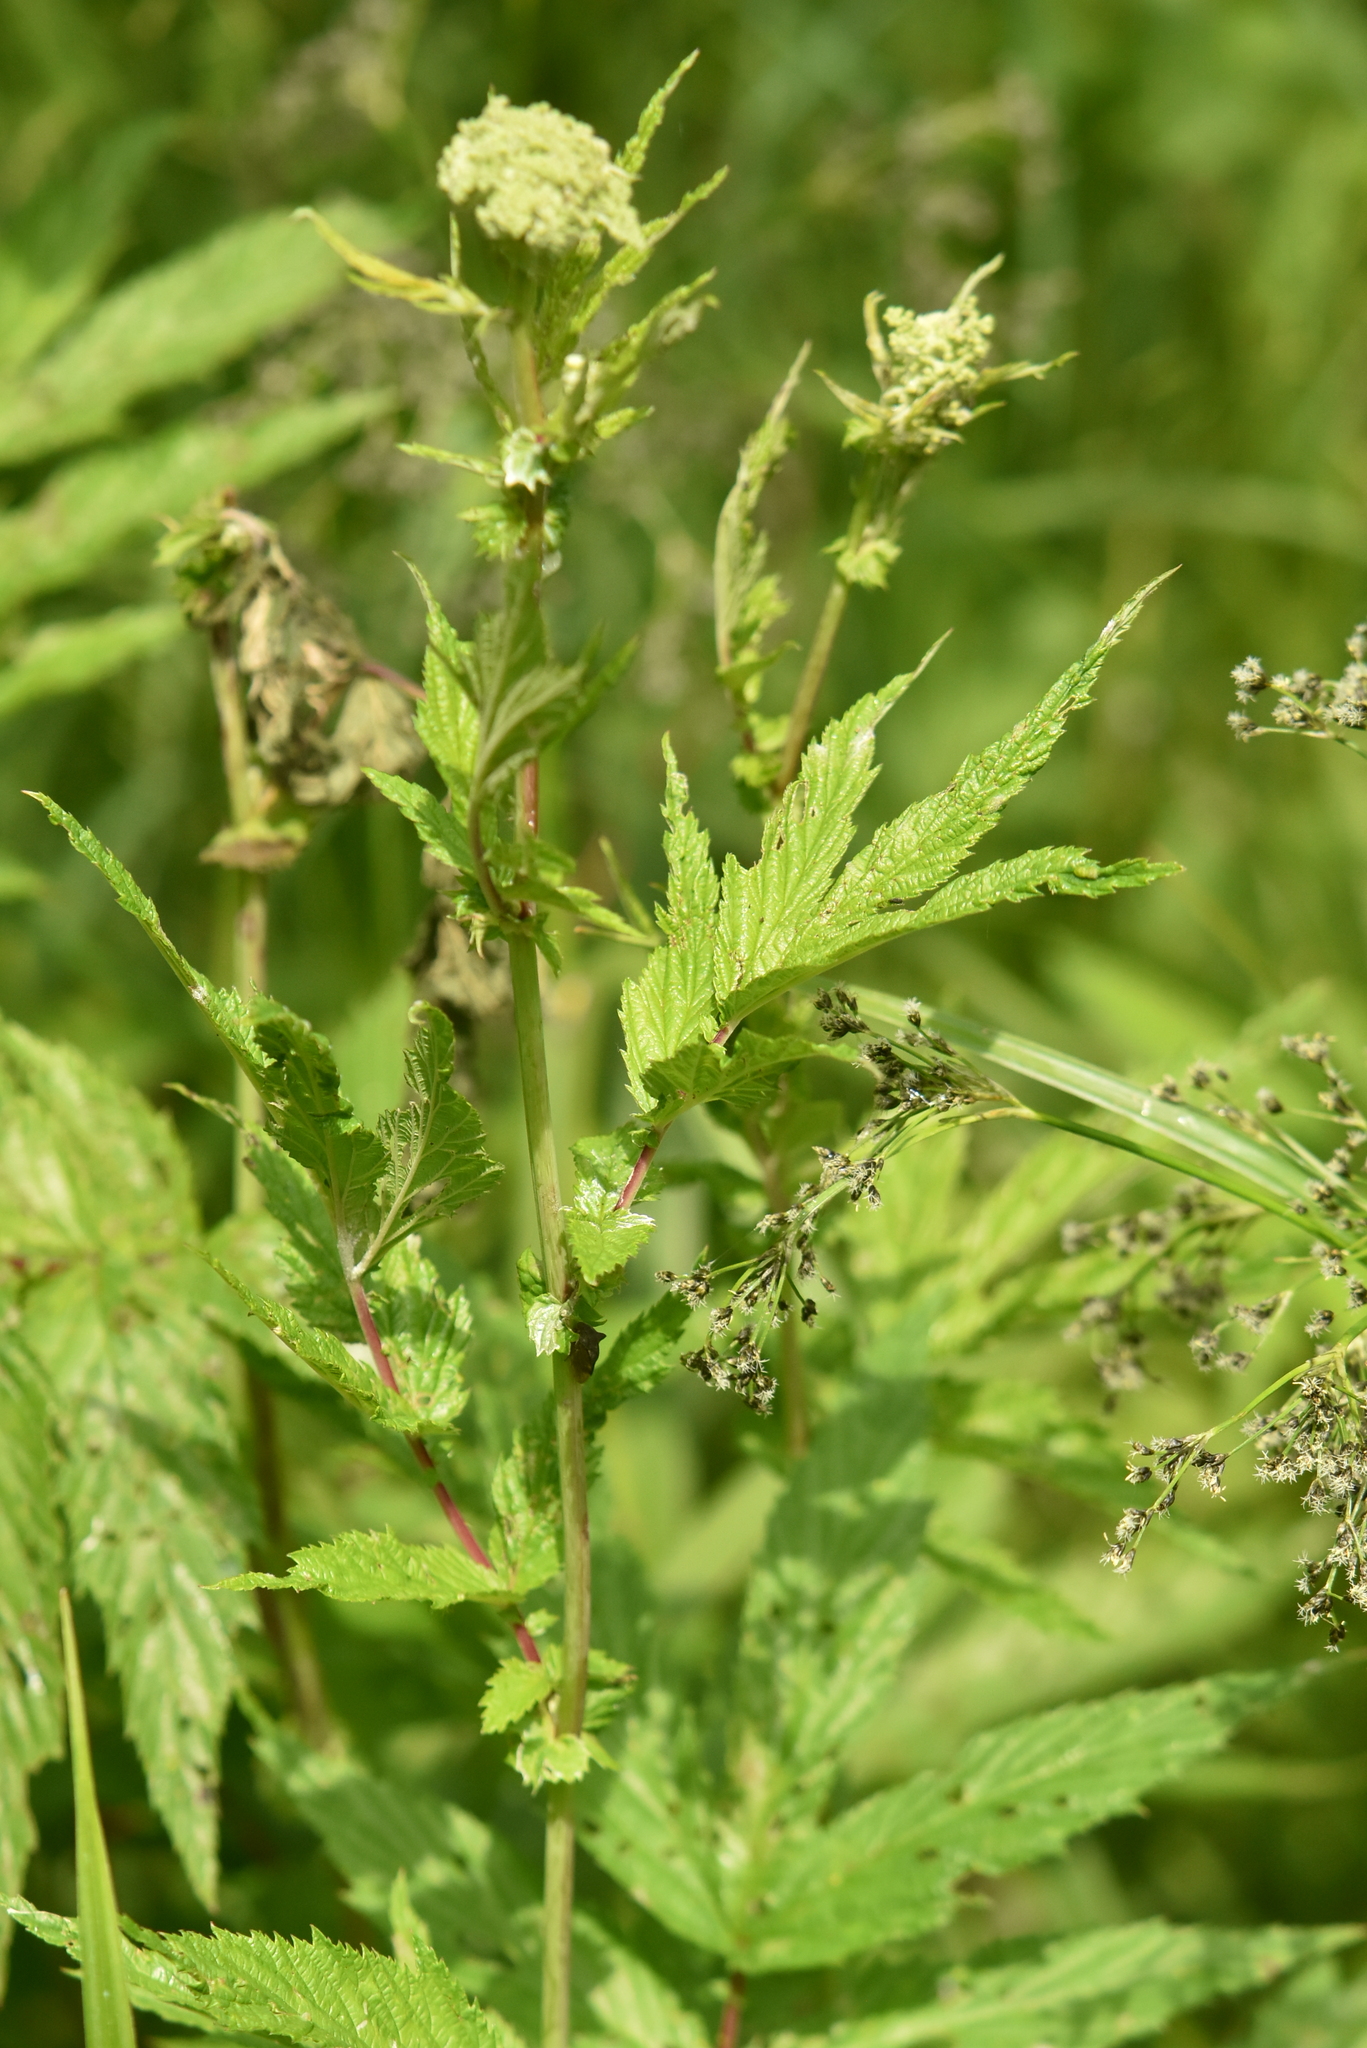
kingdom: Plantae
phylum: Tracheophyta
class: Magnoliopsida
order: Rosales
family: Rosaceae
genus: Filipendula
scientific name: Filipendula ulmaria
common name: Meadowsweet
